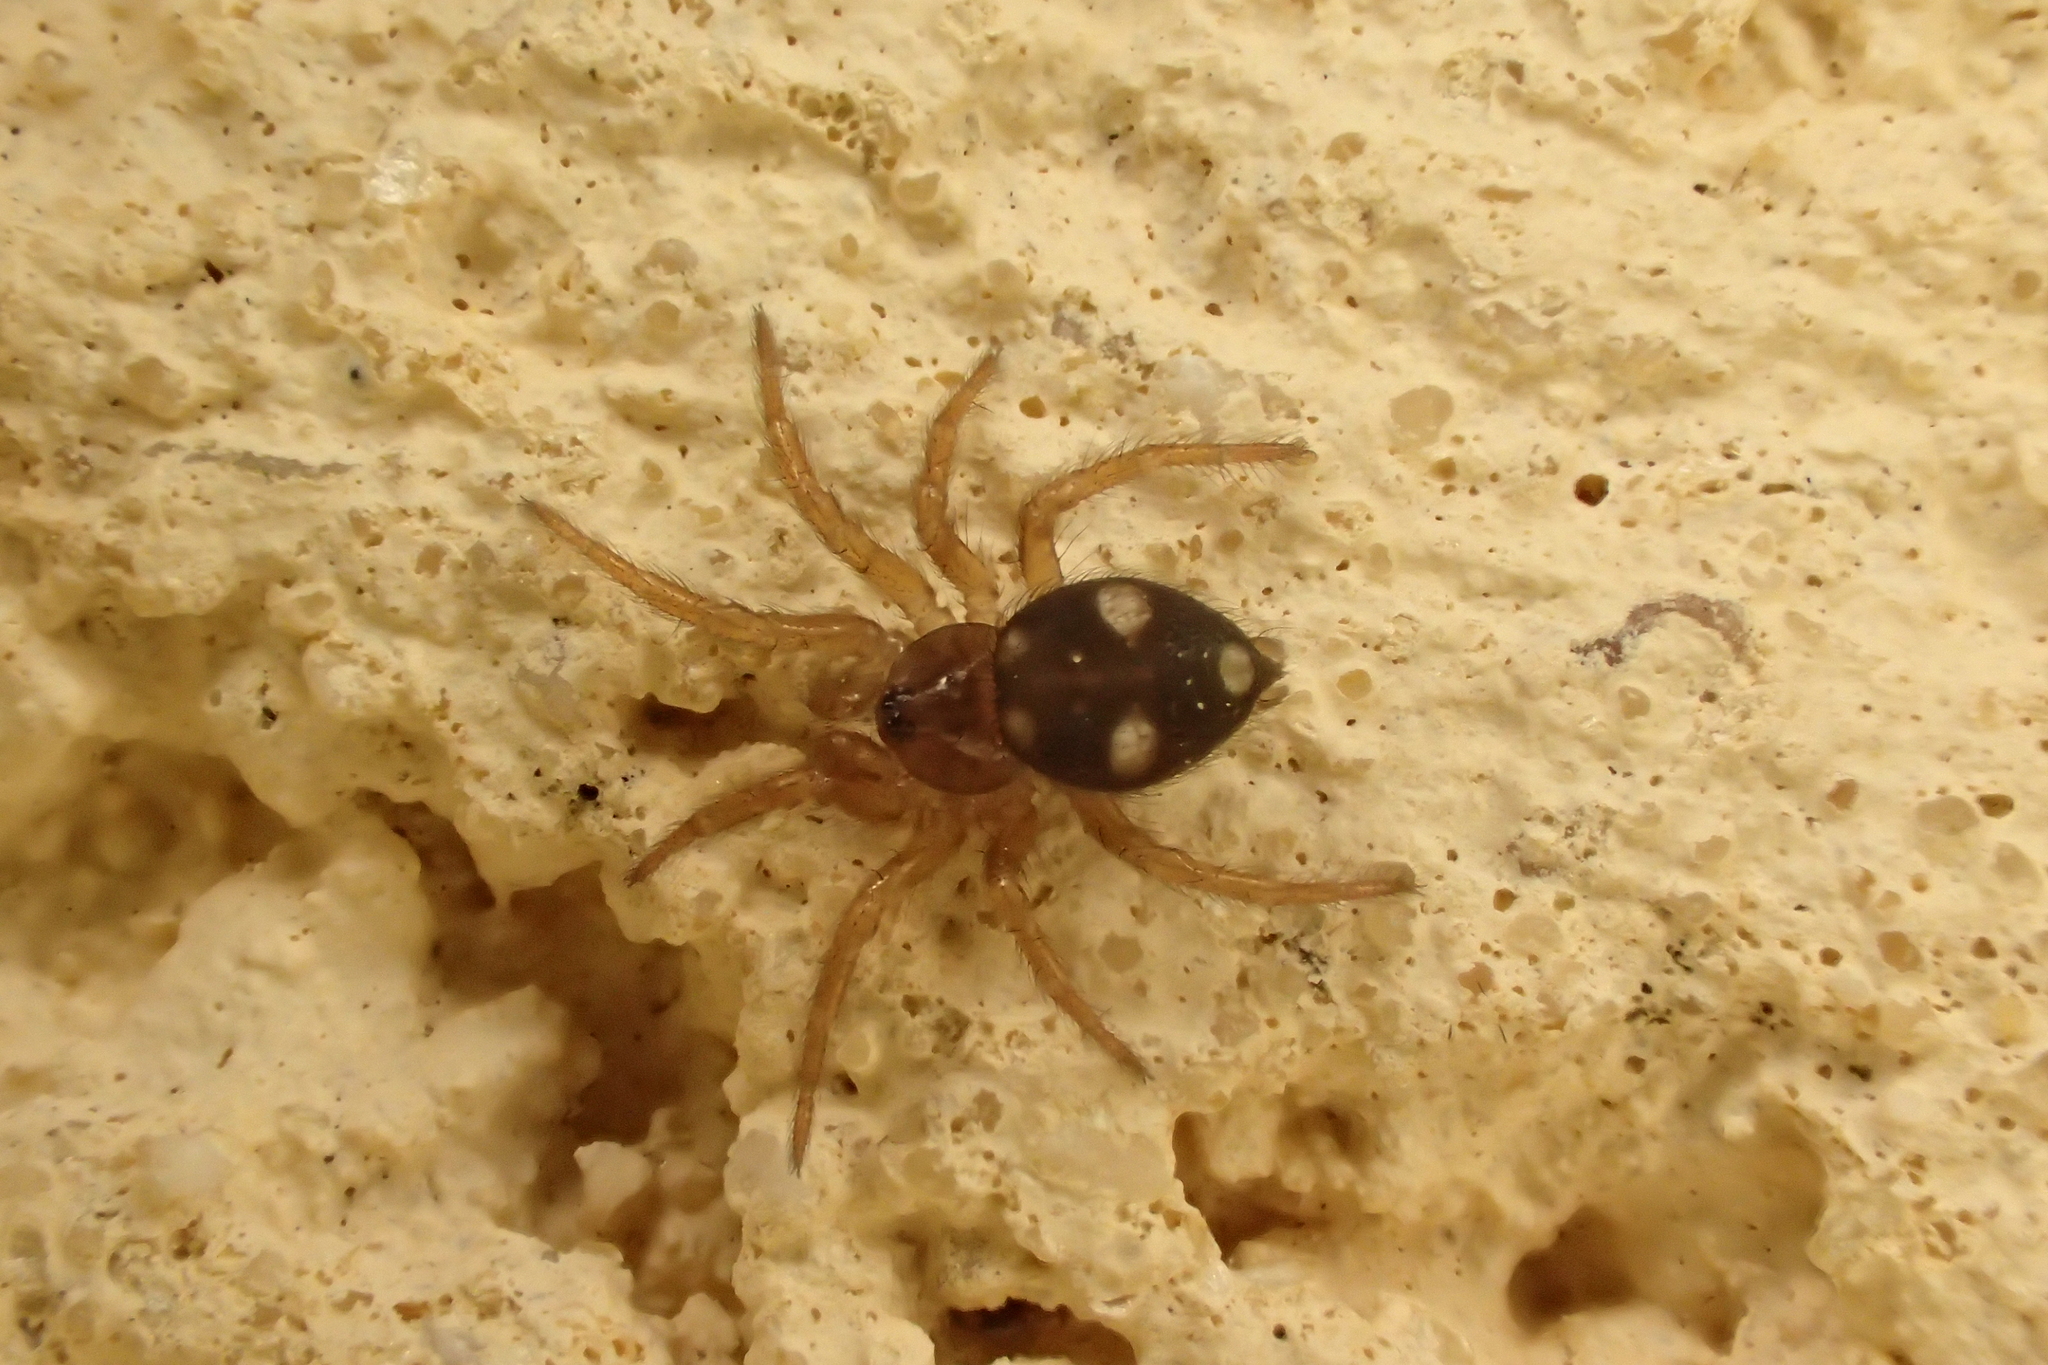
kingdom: Animalia
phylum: Arthropoda
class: Arachnida
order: Araneae
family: Oecobiidae
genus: Uroctea
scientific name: Uroctea durandi
